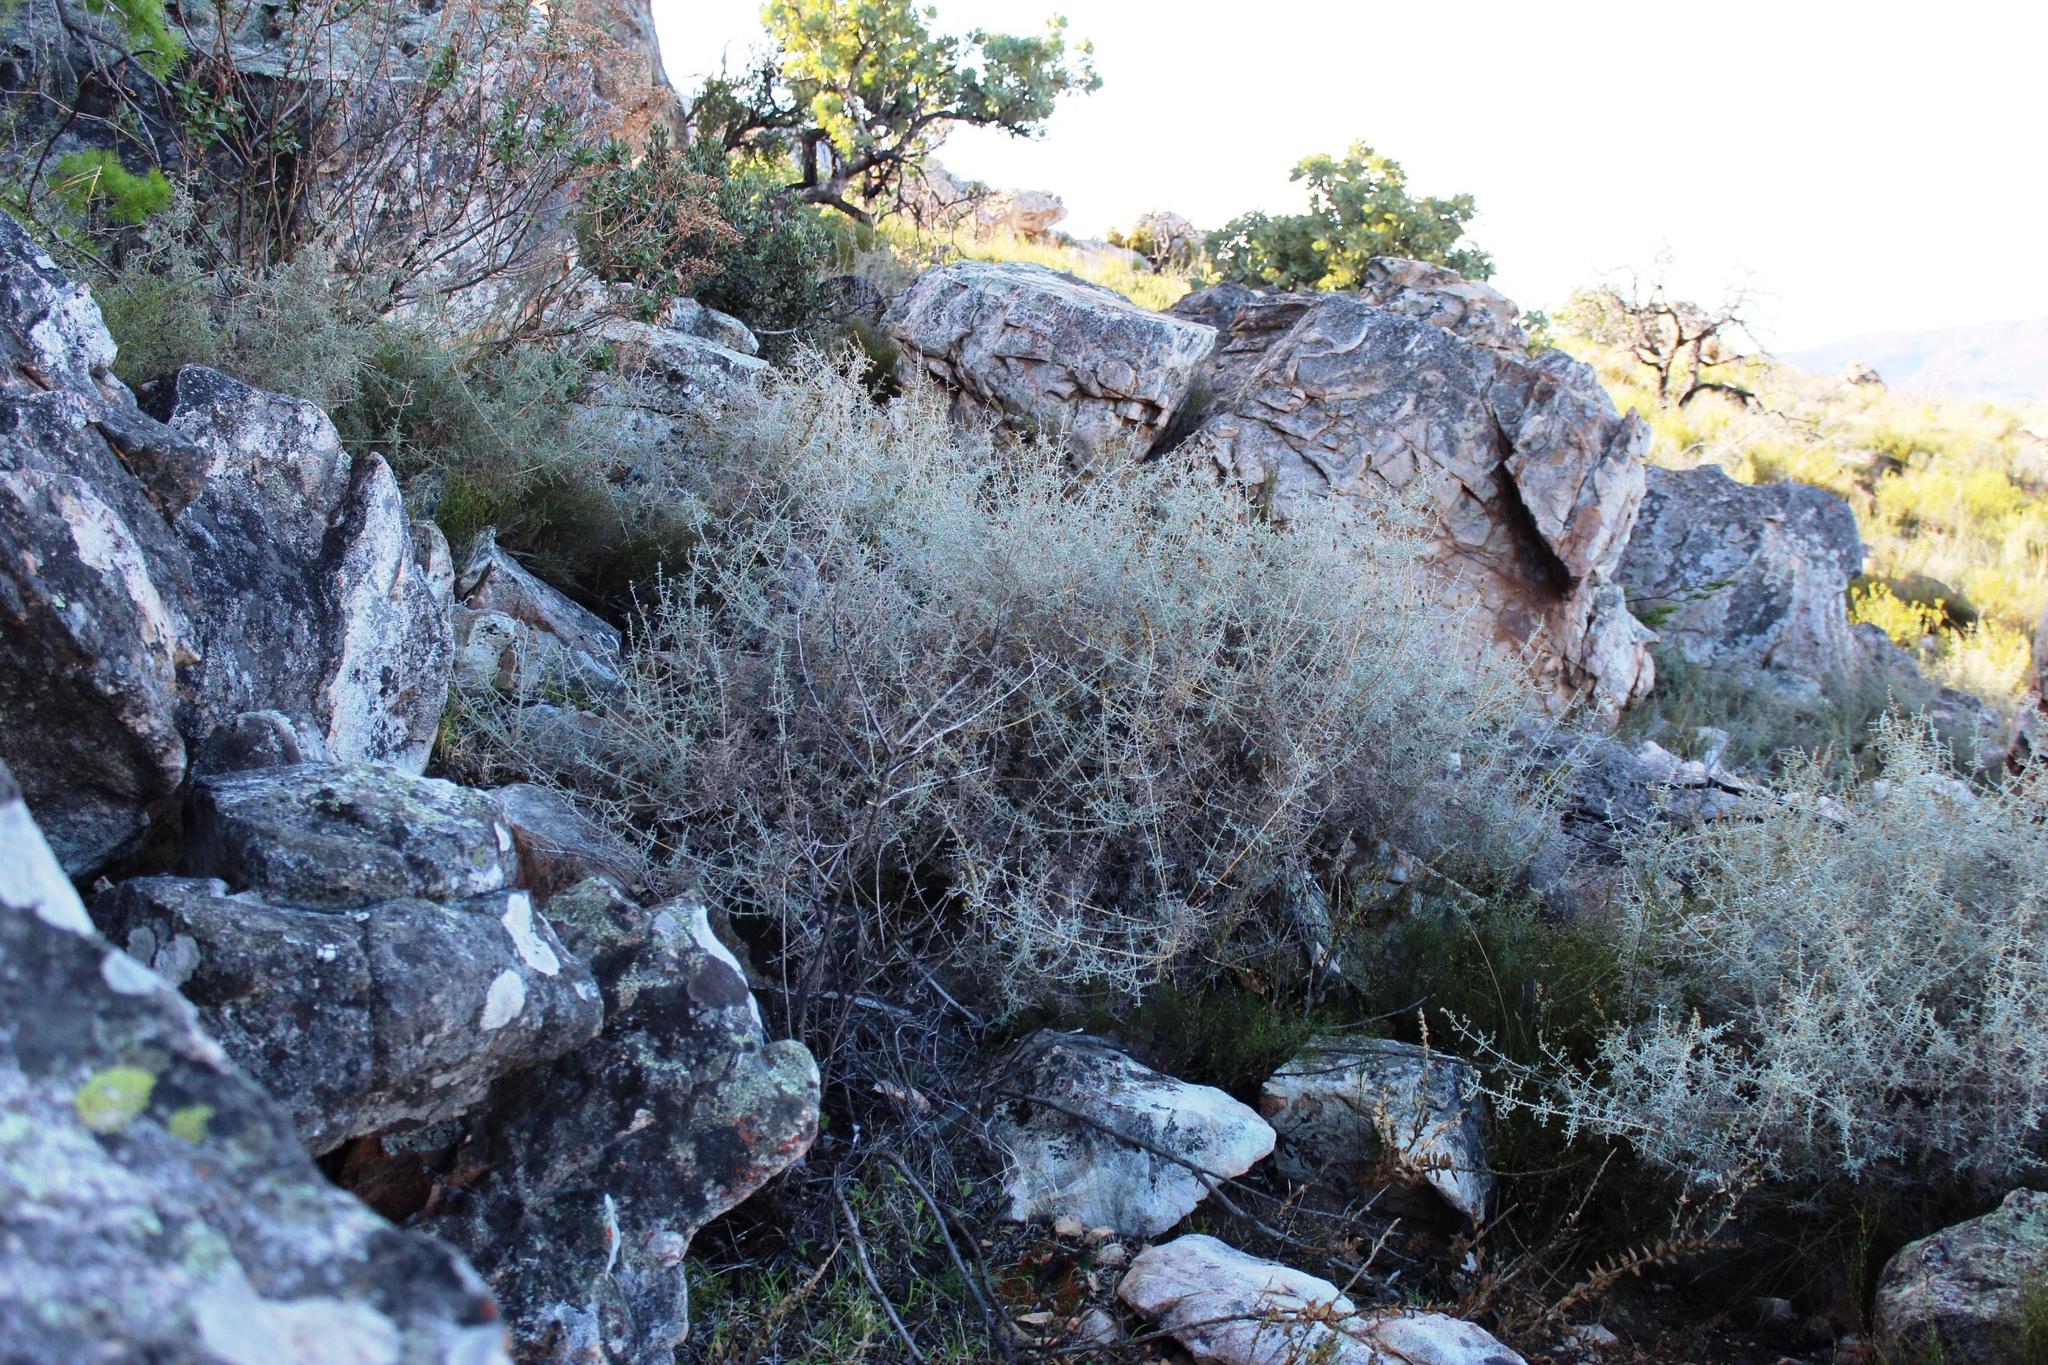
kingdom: Plantae
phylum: Tracheophyta
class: Magnoliopsida
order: Asterales
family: Asteraceae
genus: Seriphium
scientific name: Seriphium plumosum
